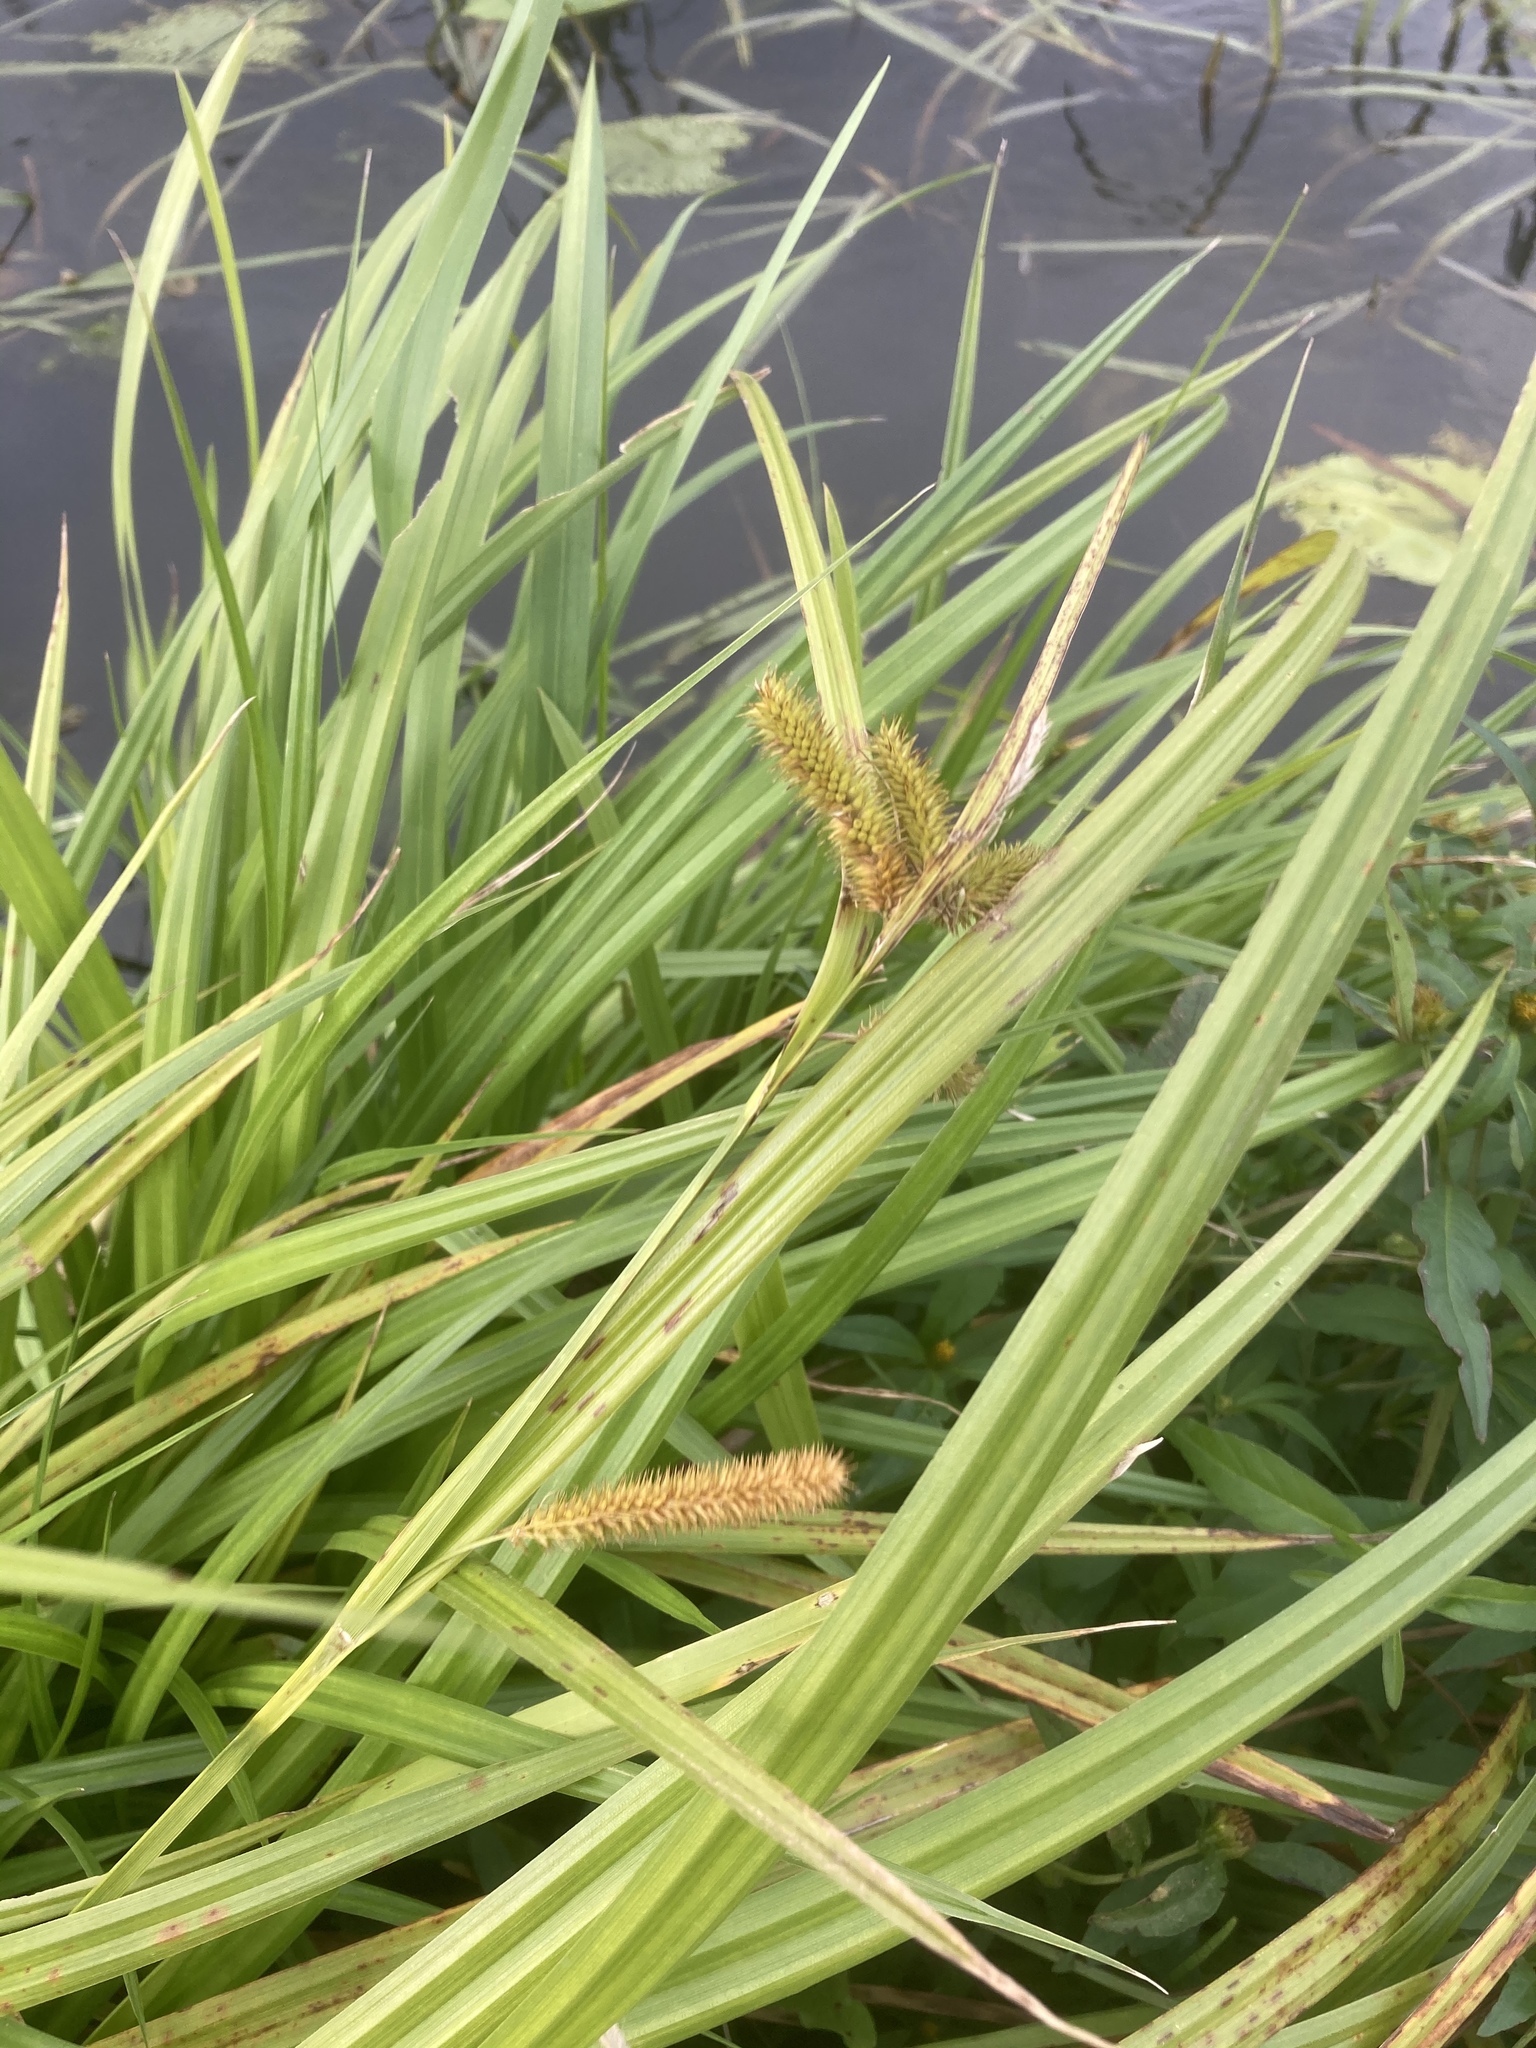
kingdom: Plantae
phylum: Tracheophyta
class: Liliopsida
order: Poales
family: Cyperaceae
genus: Carex
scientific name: Carex pseudocyperus
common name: Cyperus sedge
